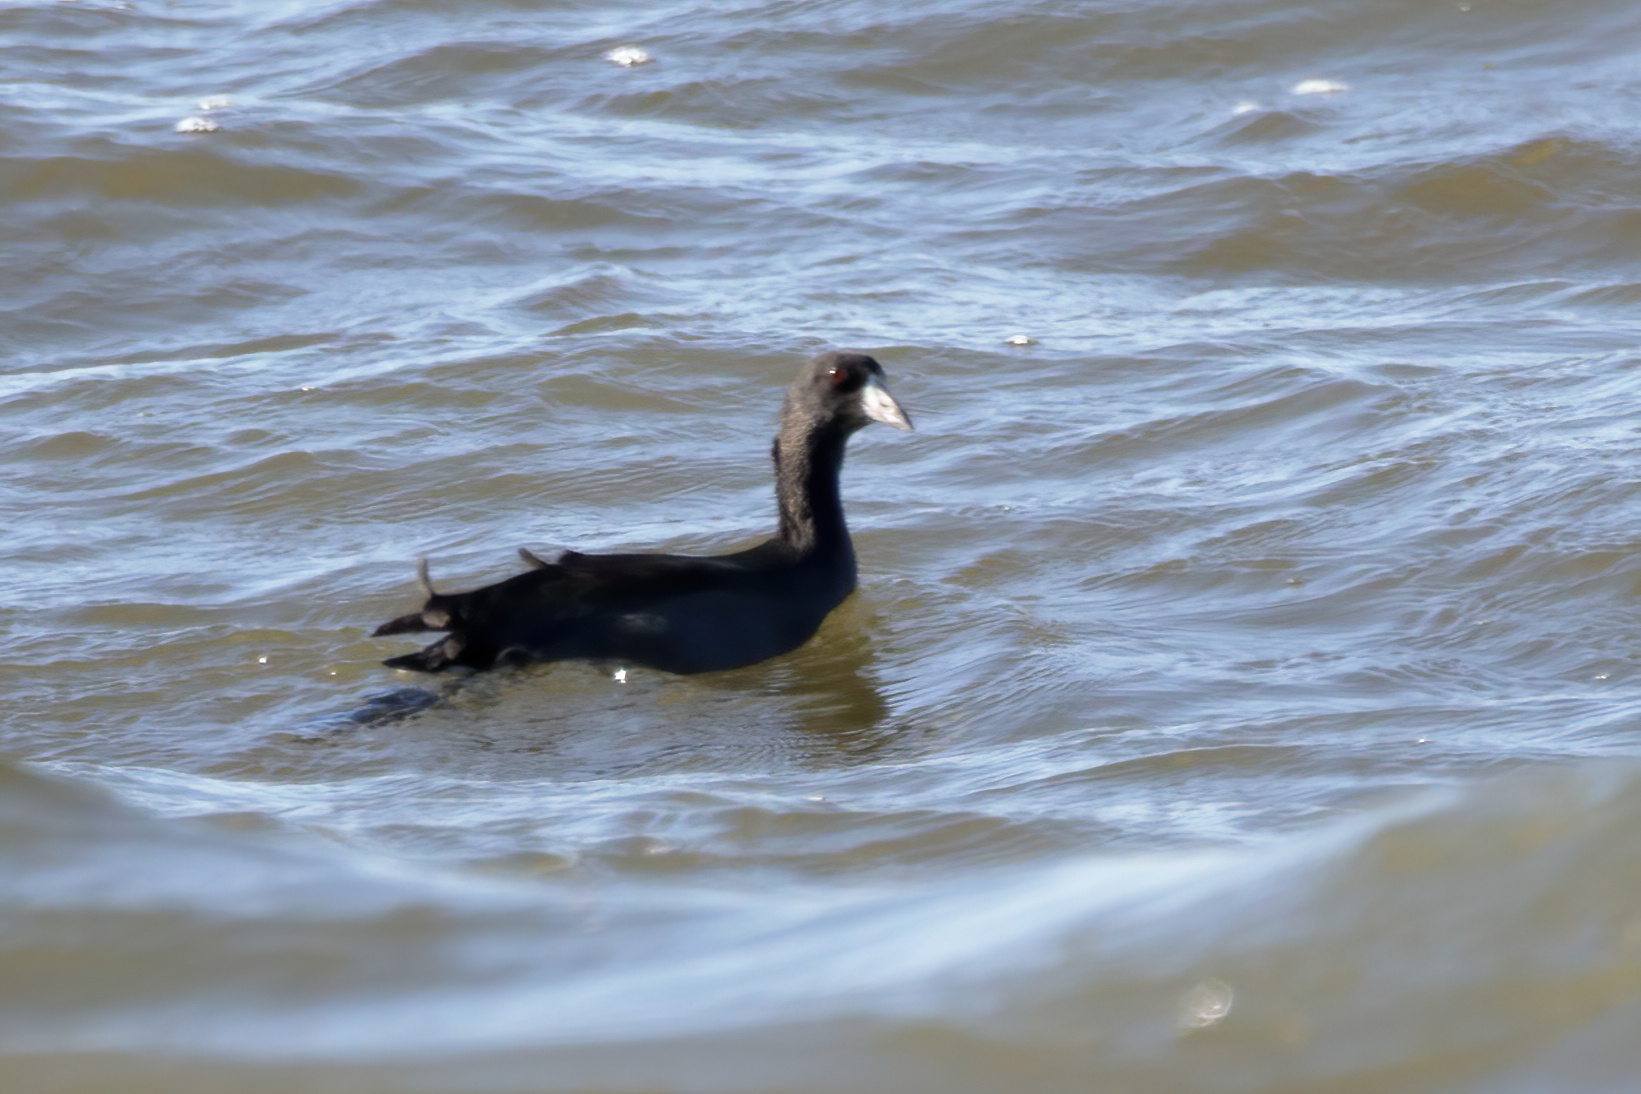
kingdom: Animalia
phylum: Chordata
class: Aves
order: Gruiformes
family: Rallidae
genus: Fulica
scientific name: Fulica americana
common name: American coot
